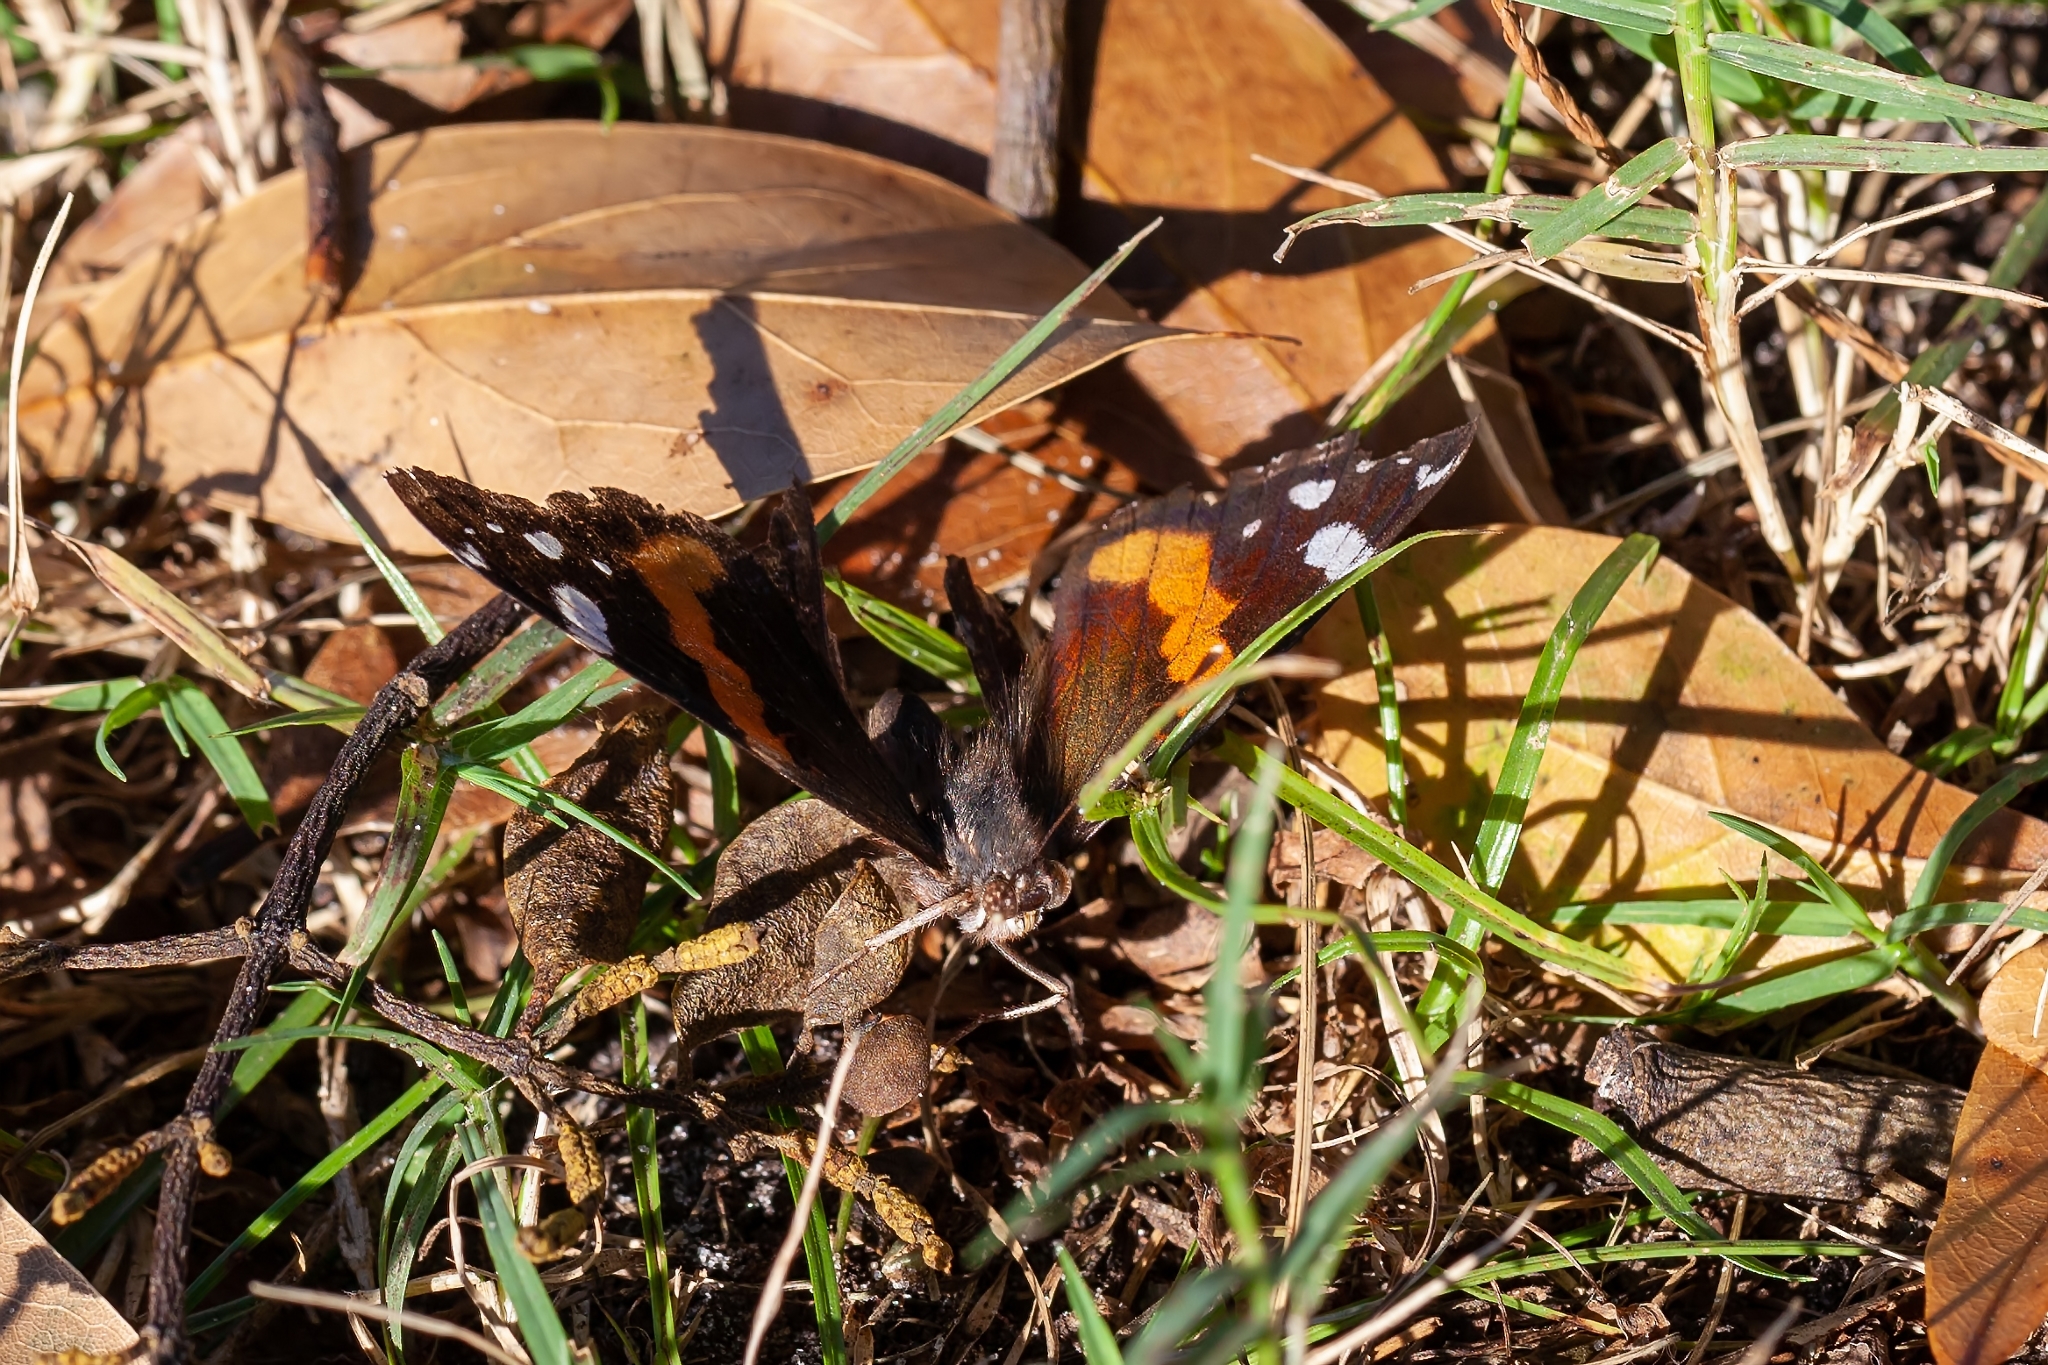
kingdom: Animalia
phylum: Arthropoda
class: Insecta
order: Lepidoptera
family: Nymphalidae
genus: Vanessa
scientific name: Vanessa atalanta
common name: Red admiral
